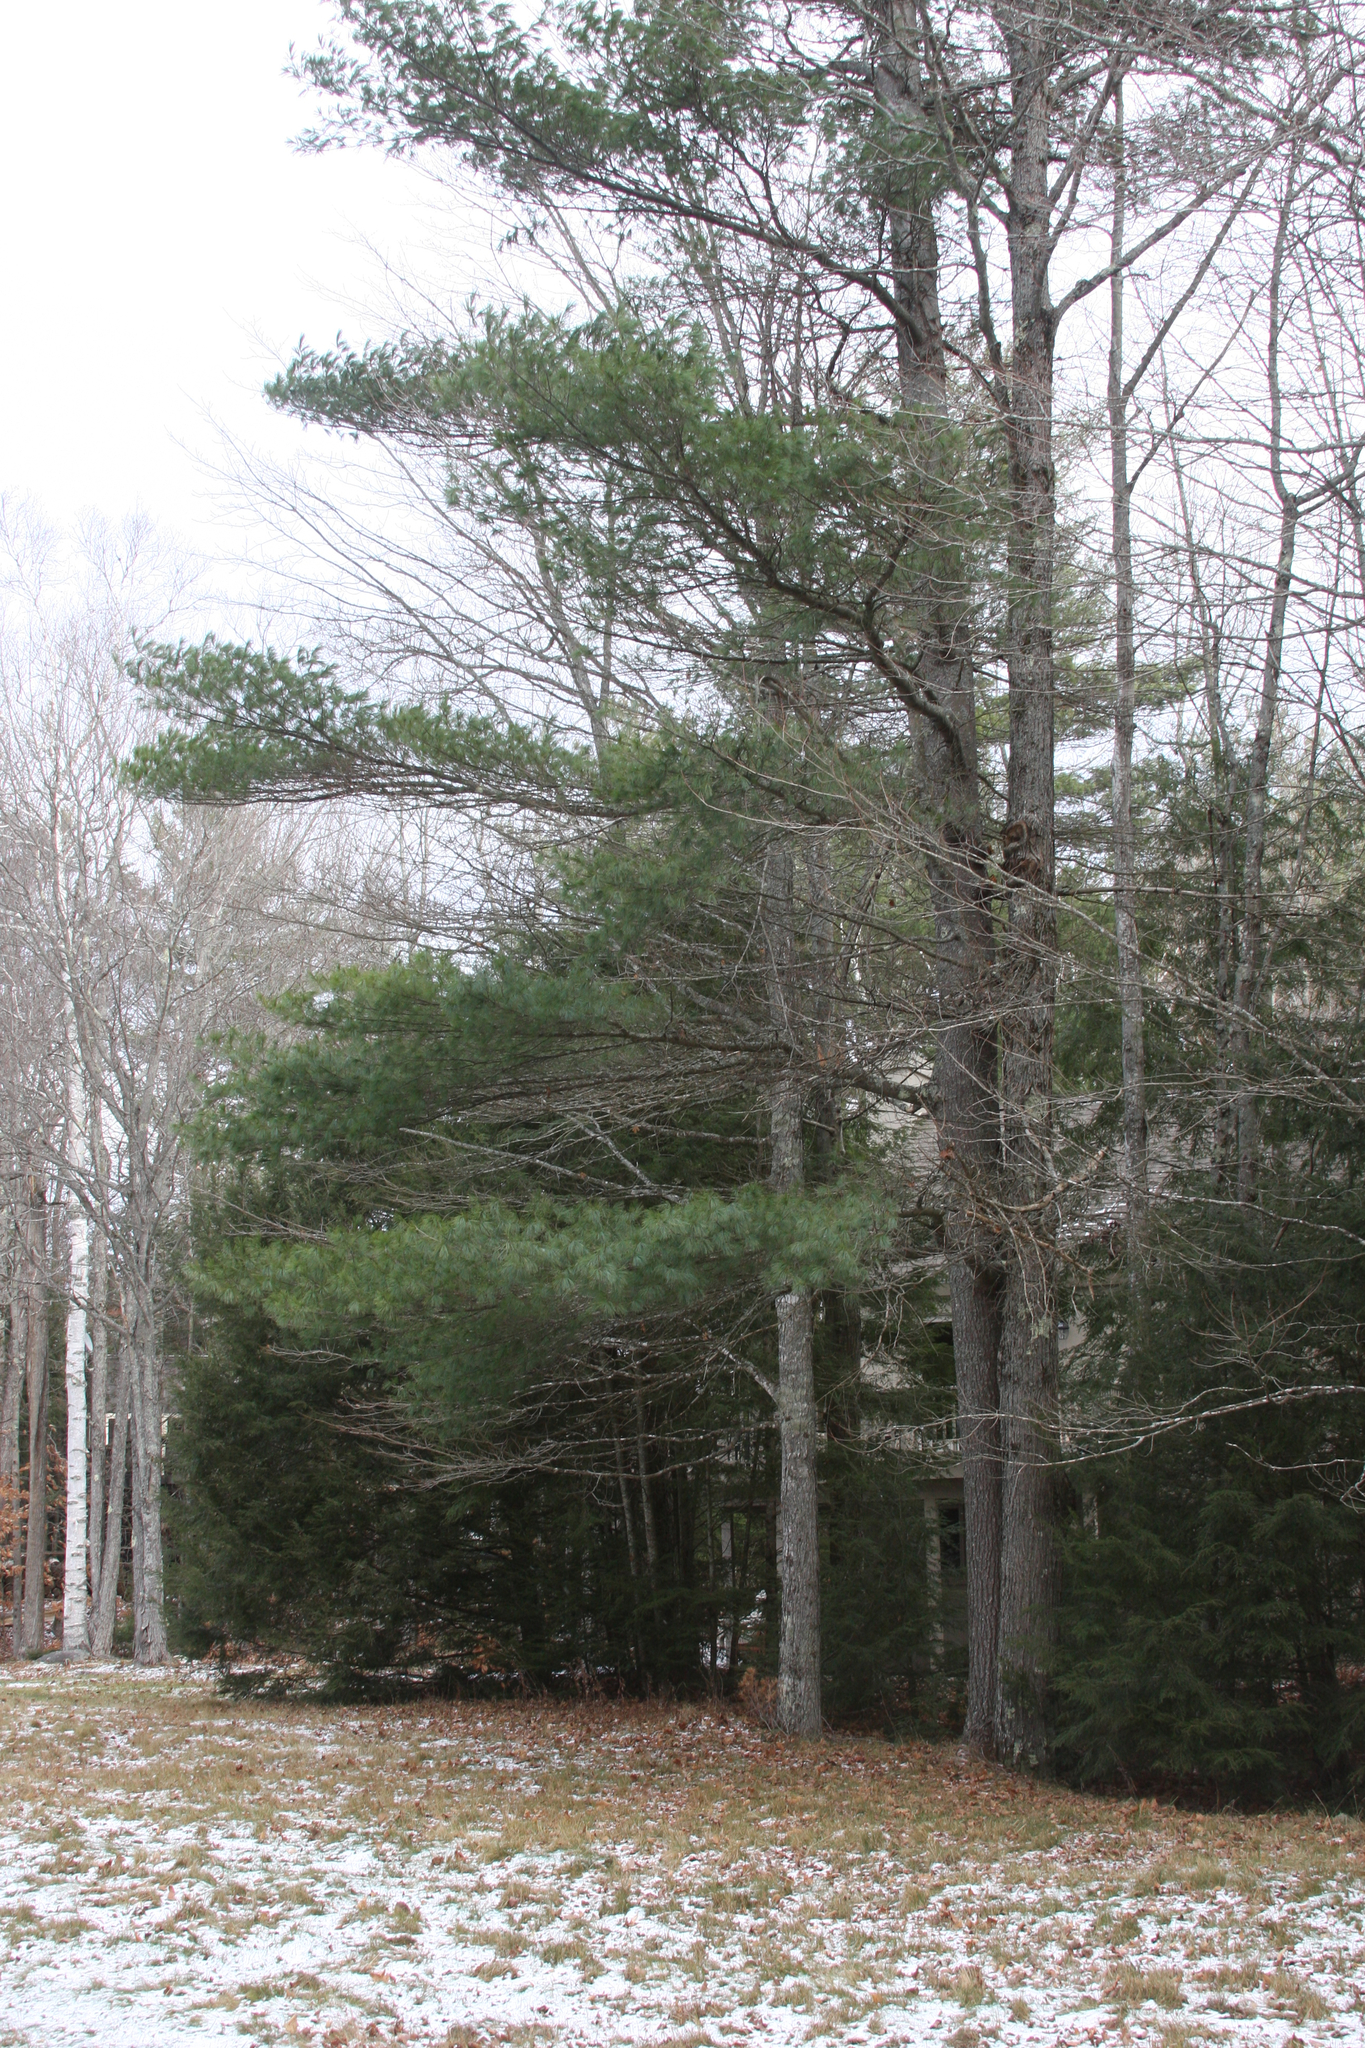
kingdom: Plantae
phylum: Tracheophyta
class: Pinopsida
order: Pinales
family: Pinaceae
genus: Pinus
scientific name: Pinus strobus
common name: Weymouth pine
